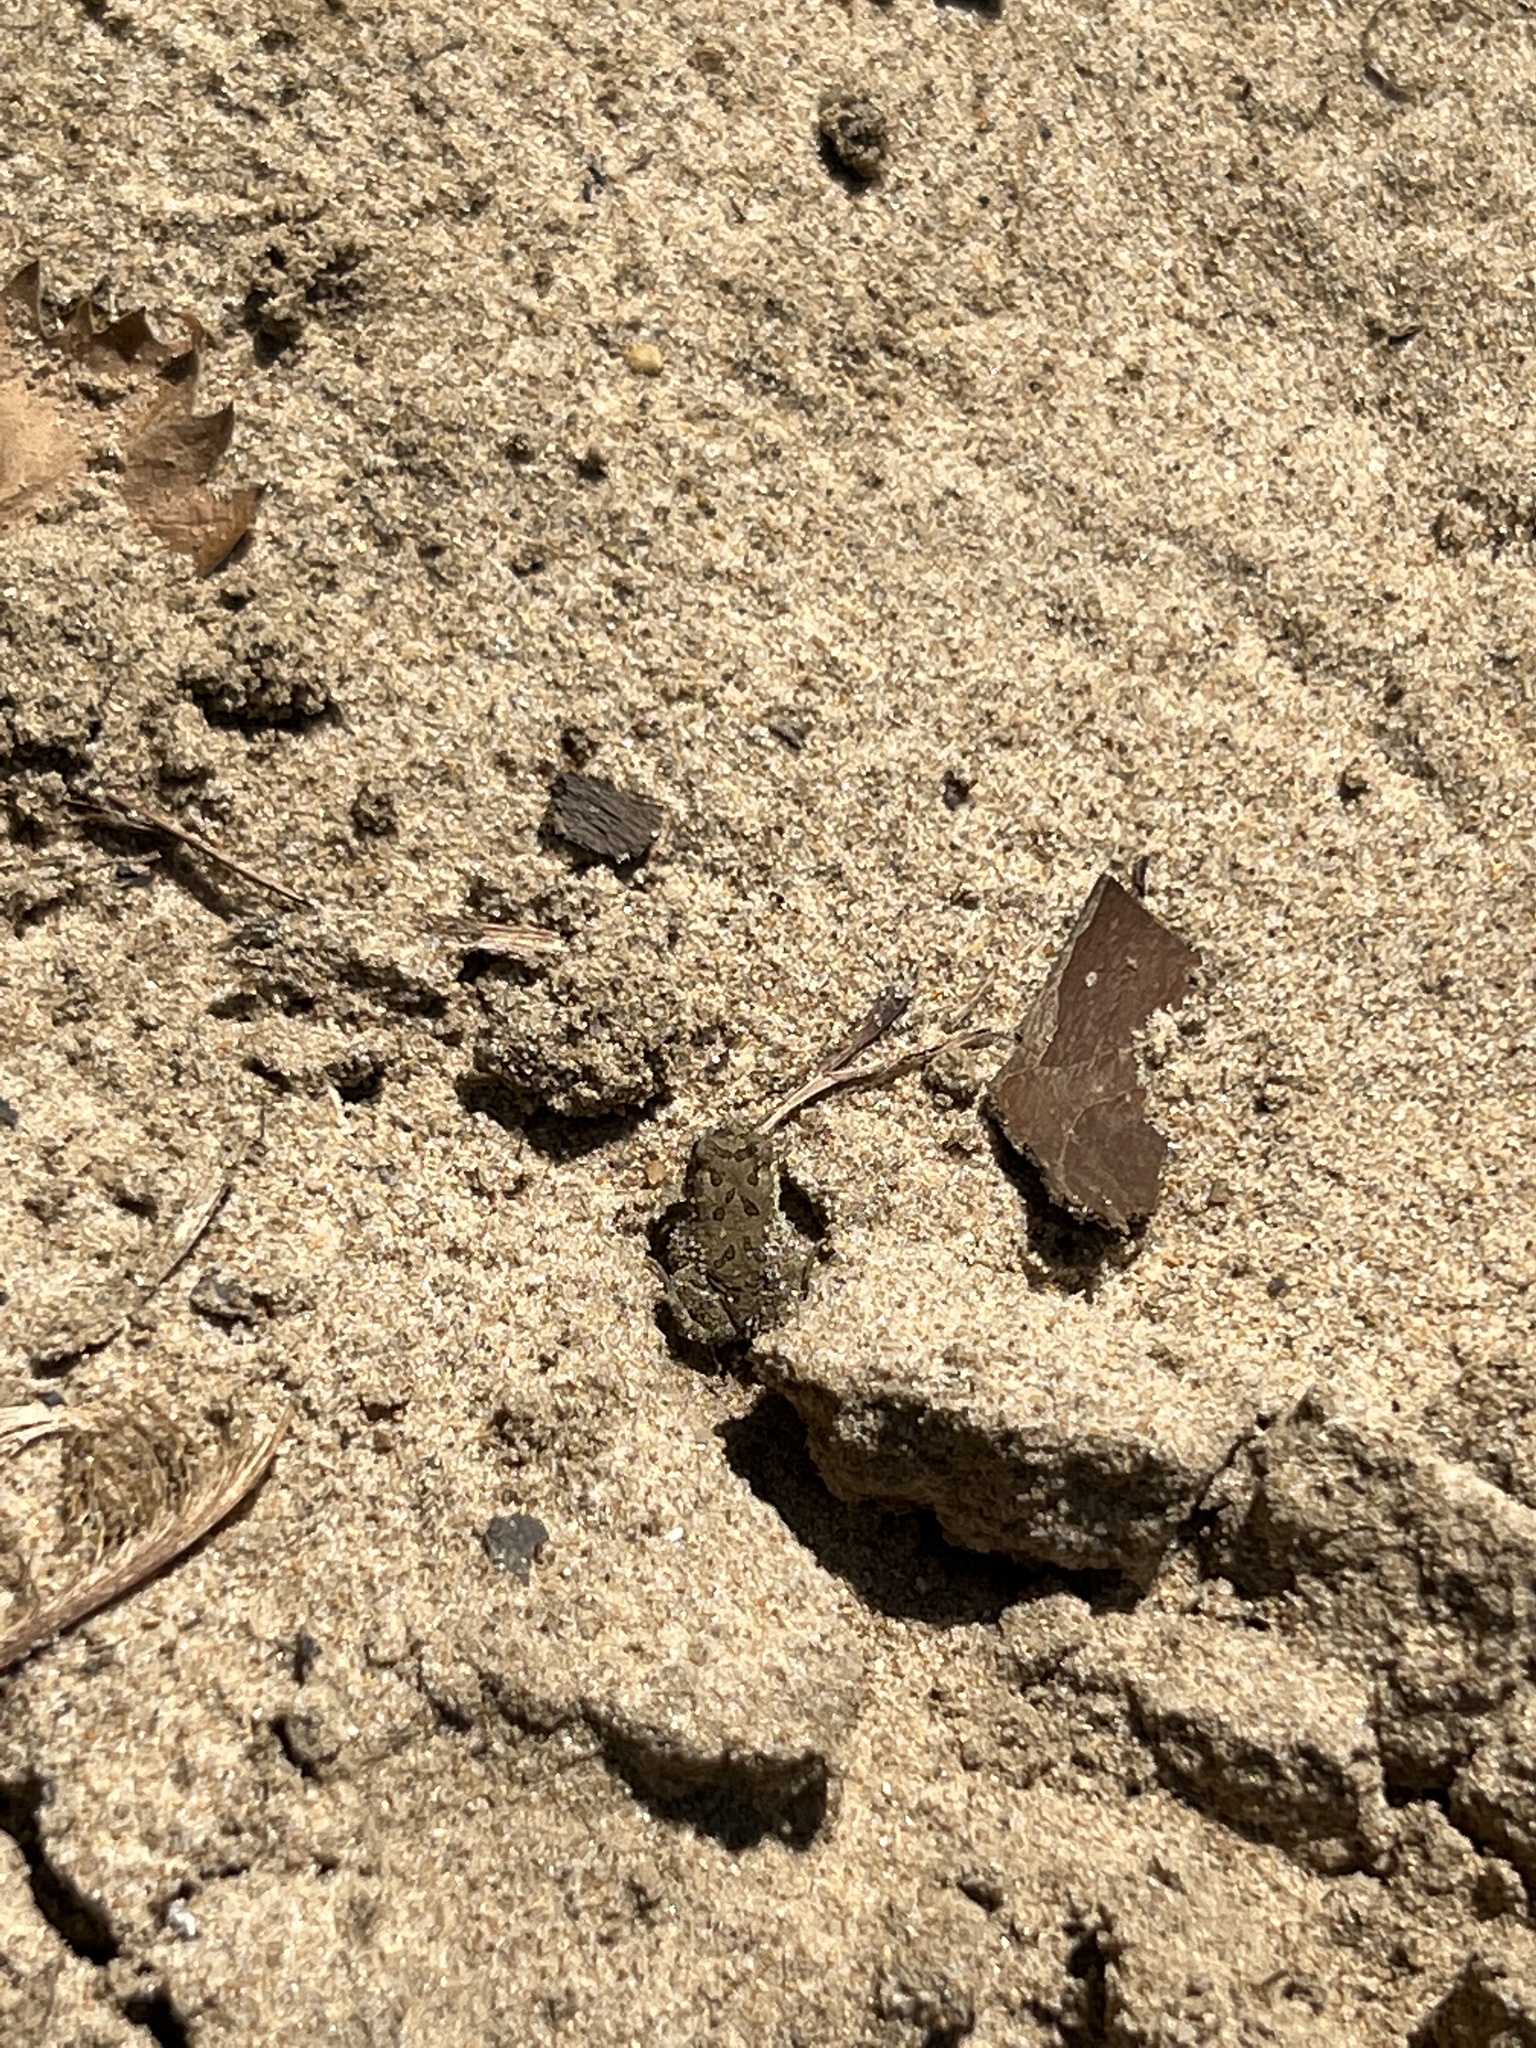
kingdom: Animalia
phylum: Chordata
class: Amphibia
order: Anura
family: Bufonidae
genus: Anaxyrus
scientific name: Anaxyrus fowleri
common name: Fowler's toad
